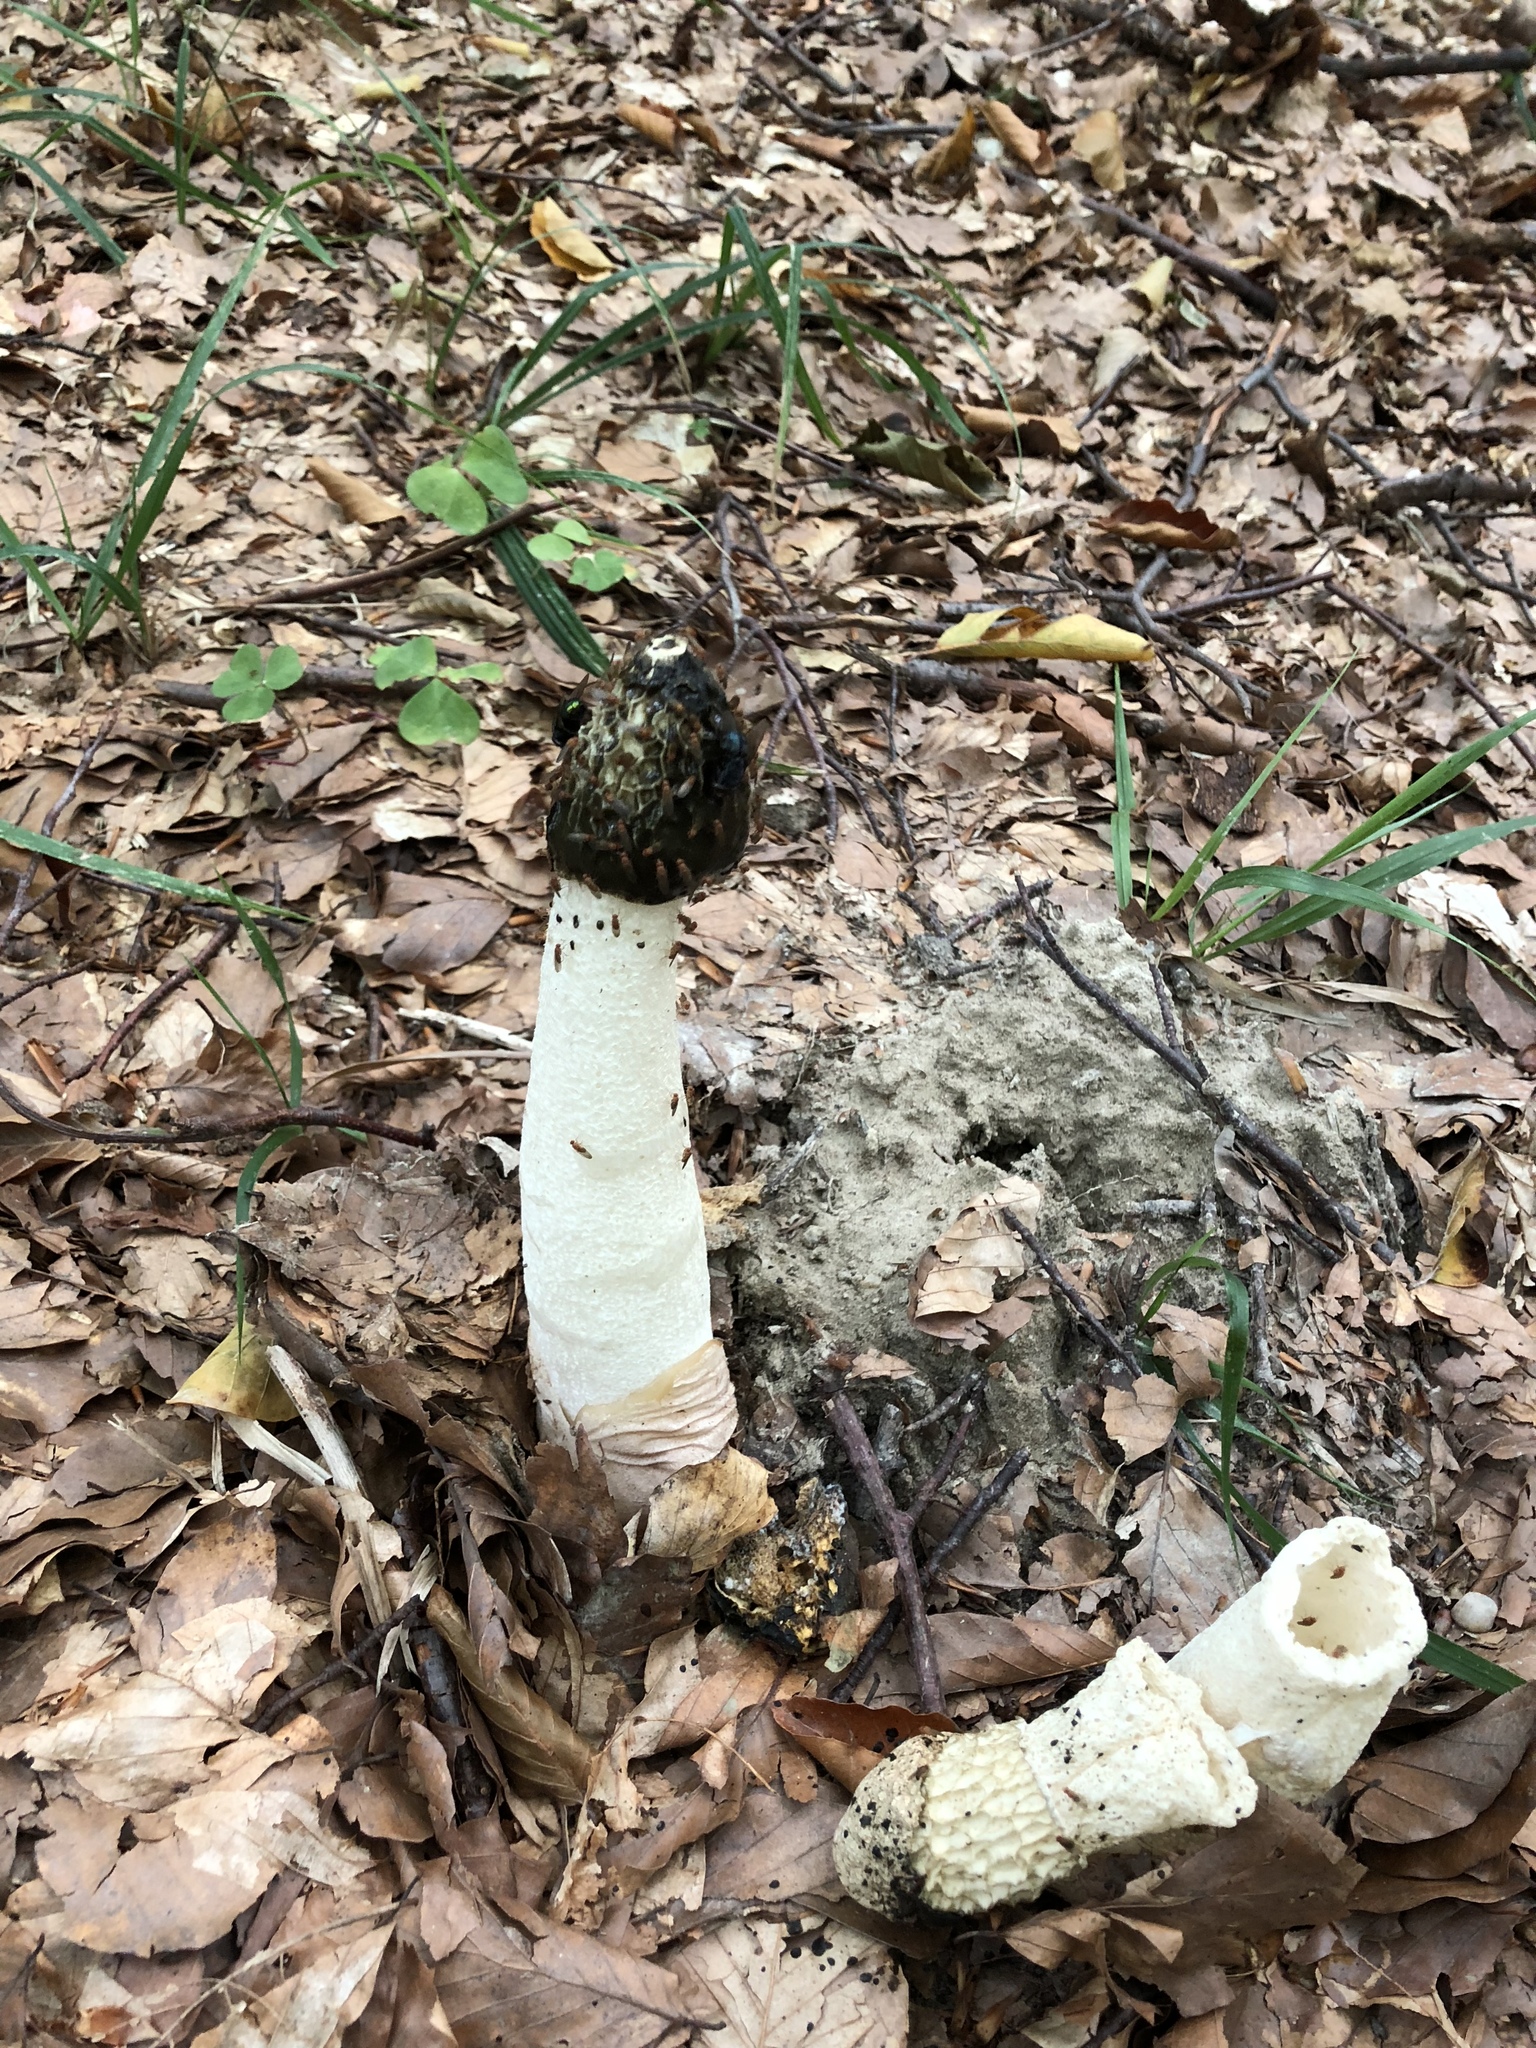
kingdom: Fungi
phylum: Basidiomycota
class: Agaricomycetes
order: Phallales
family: Phallaceae
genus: Phallus
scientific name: Phallus impudicus
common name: Common stinkhorn
